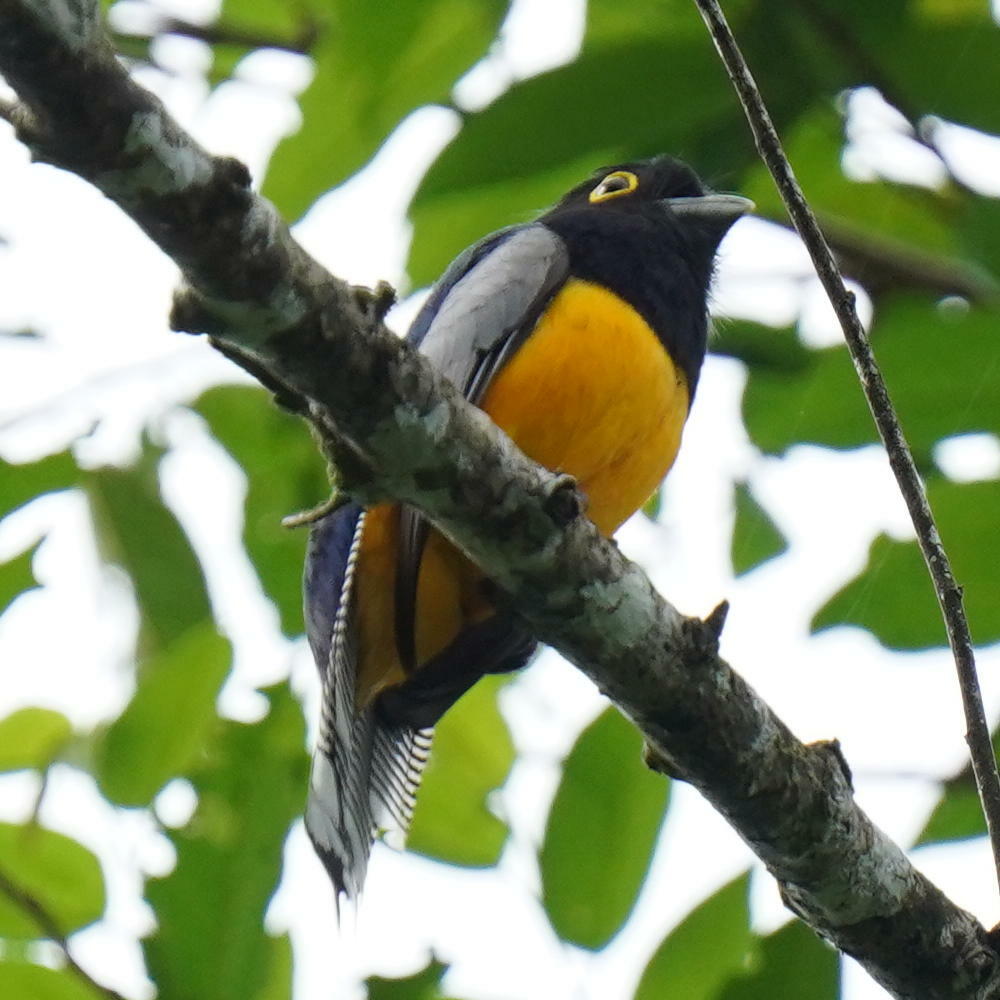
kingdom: Animalia
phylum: Chordata
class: Aves
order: Trogoniformes
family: Trogonidae
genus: Trogon
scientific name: Trogon caligatus
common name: Gartered trogon
